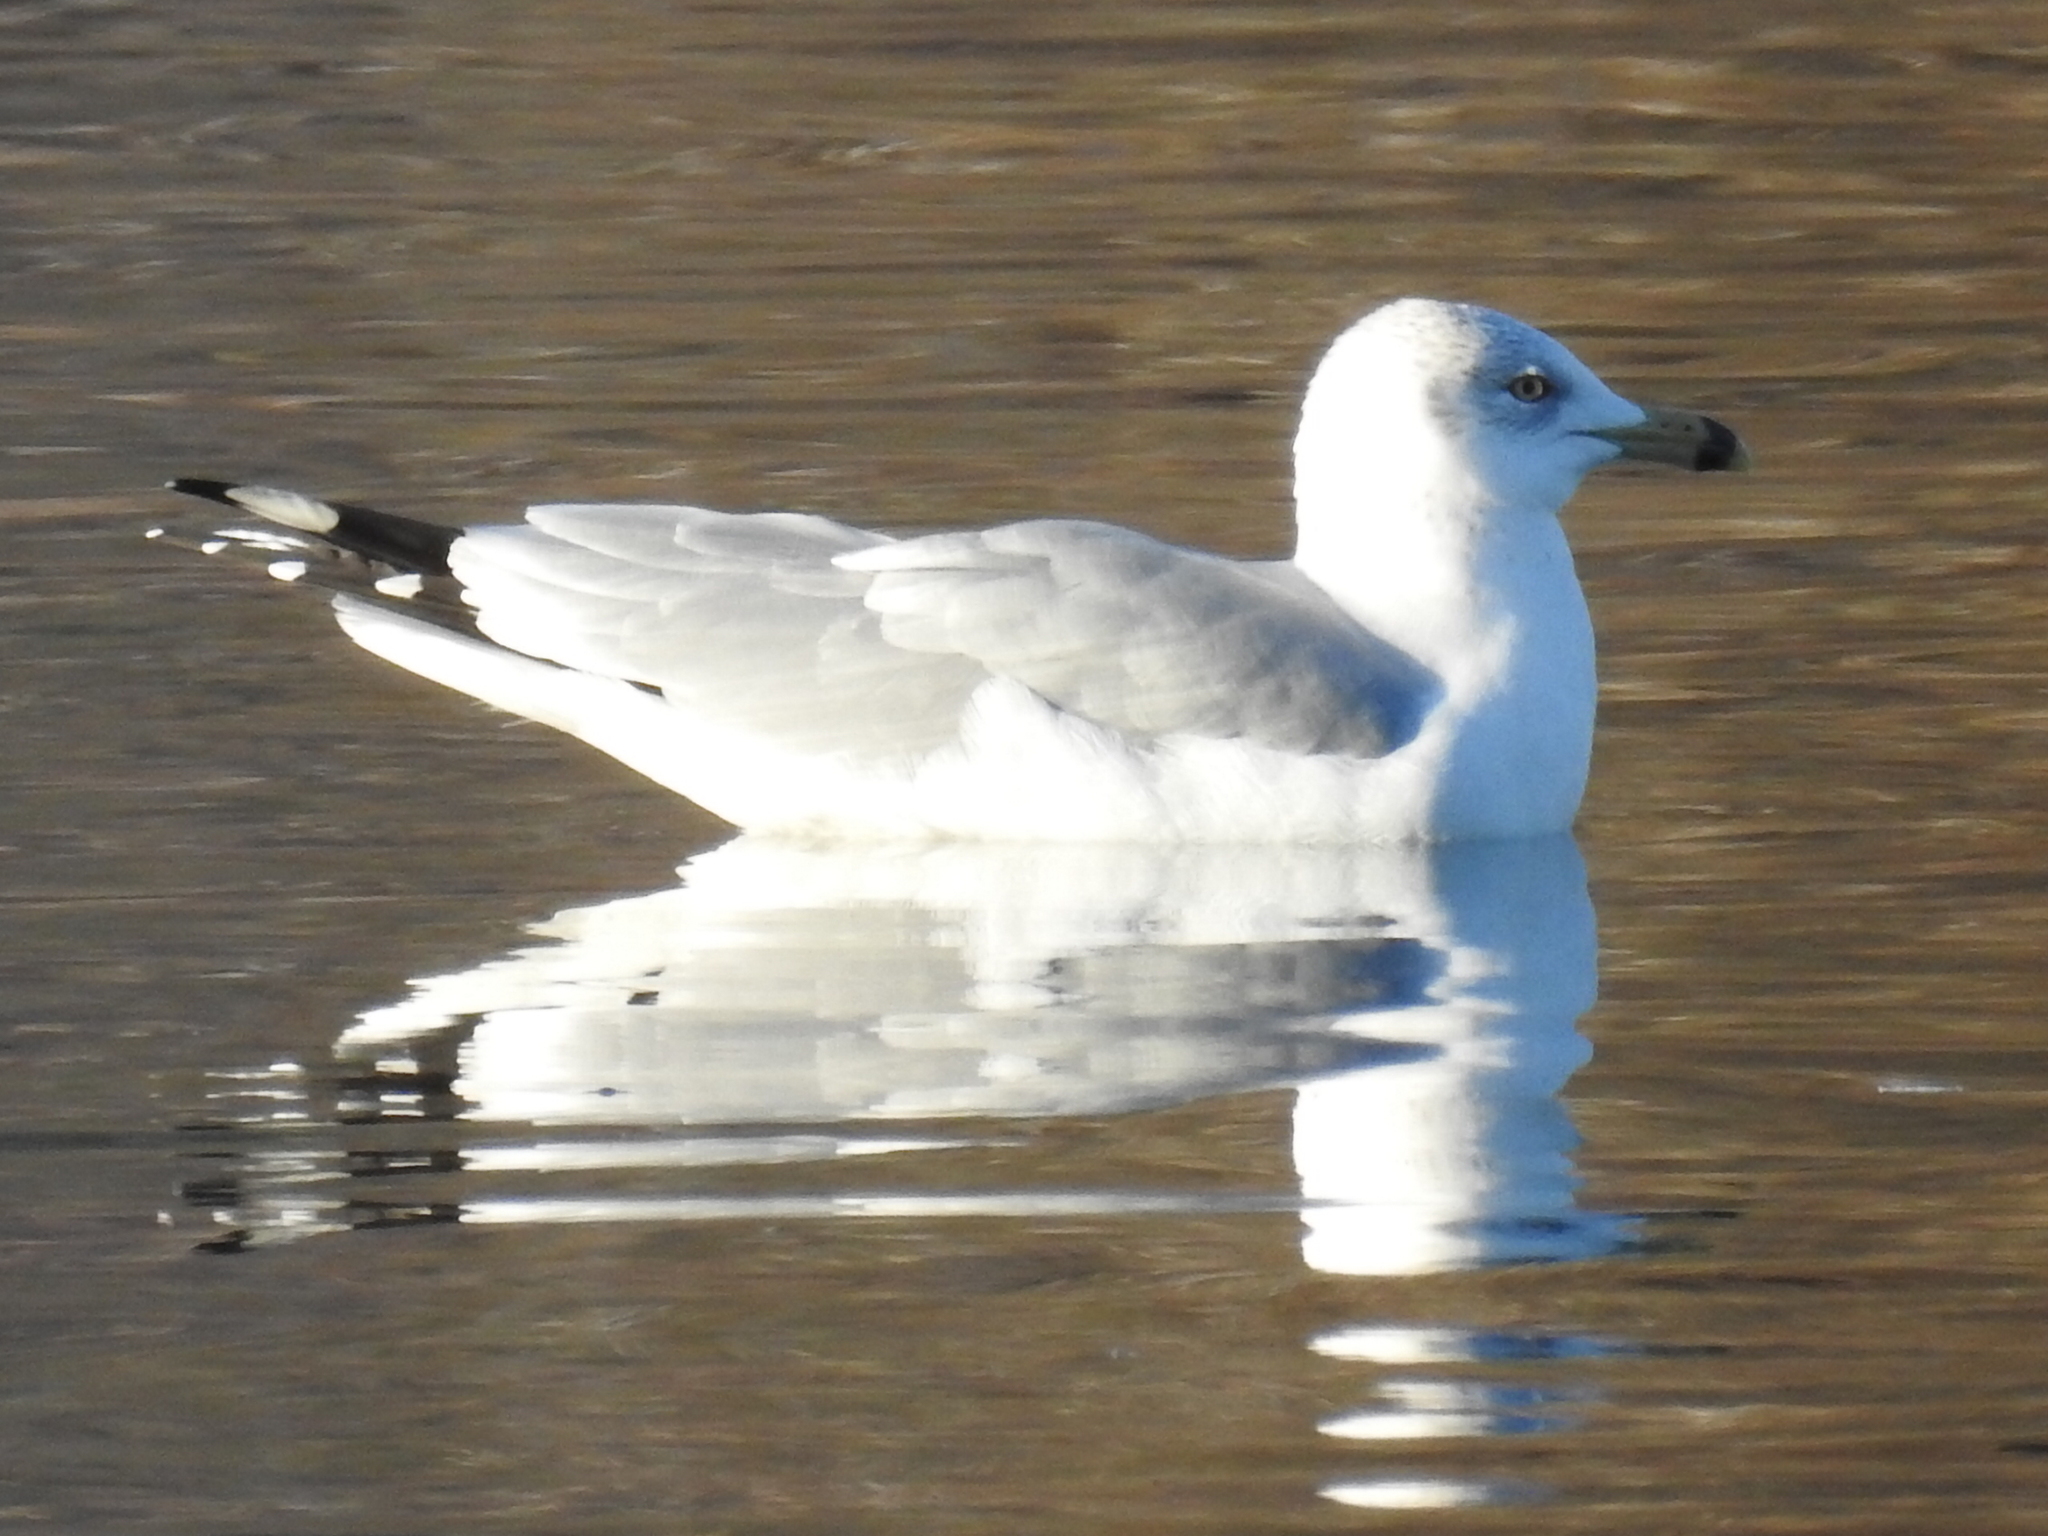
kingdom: Animalia
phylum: Chordata
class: Aves
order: Charadriiformes
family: Laridae
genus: Larus
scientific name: Larus delawarensis
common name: Ring-billed gull
